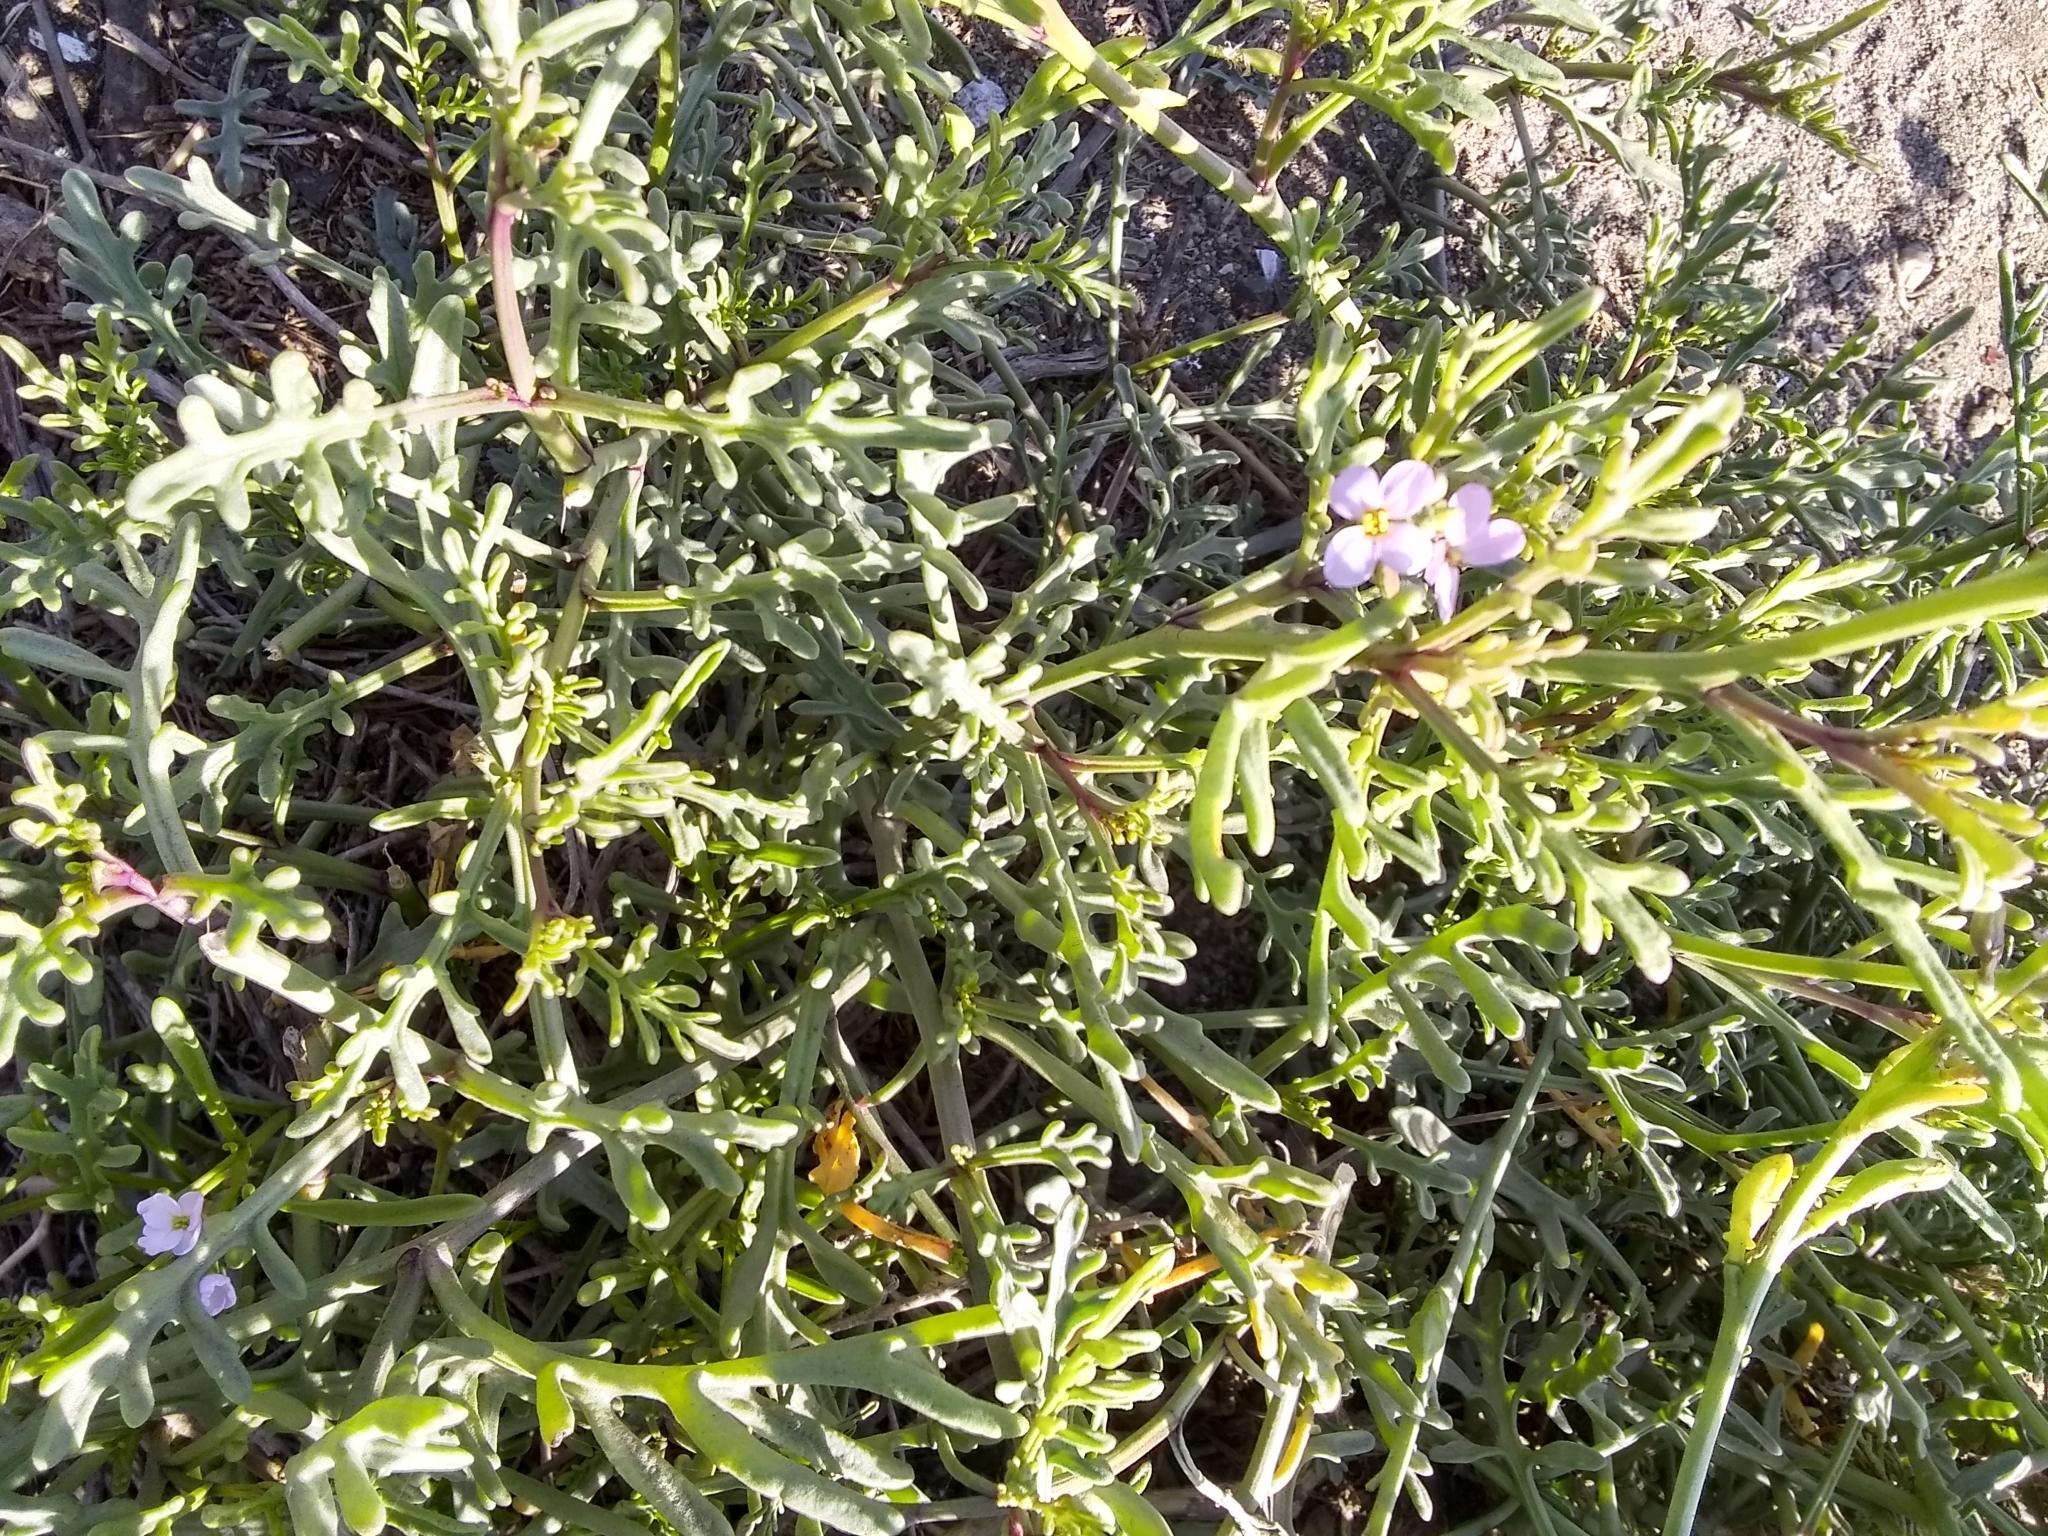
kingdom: Plantae
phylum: Tracheophyta
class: Magnoliopsida
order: Brassicales
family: Brassicaceae
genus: Cakile
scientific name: Cakile maritima
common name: Sea rocket
